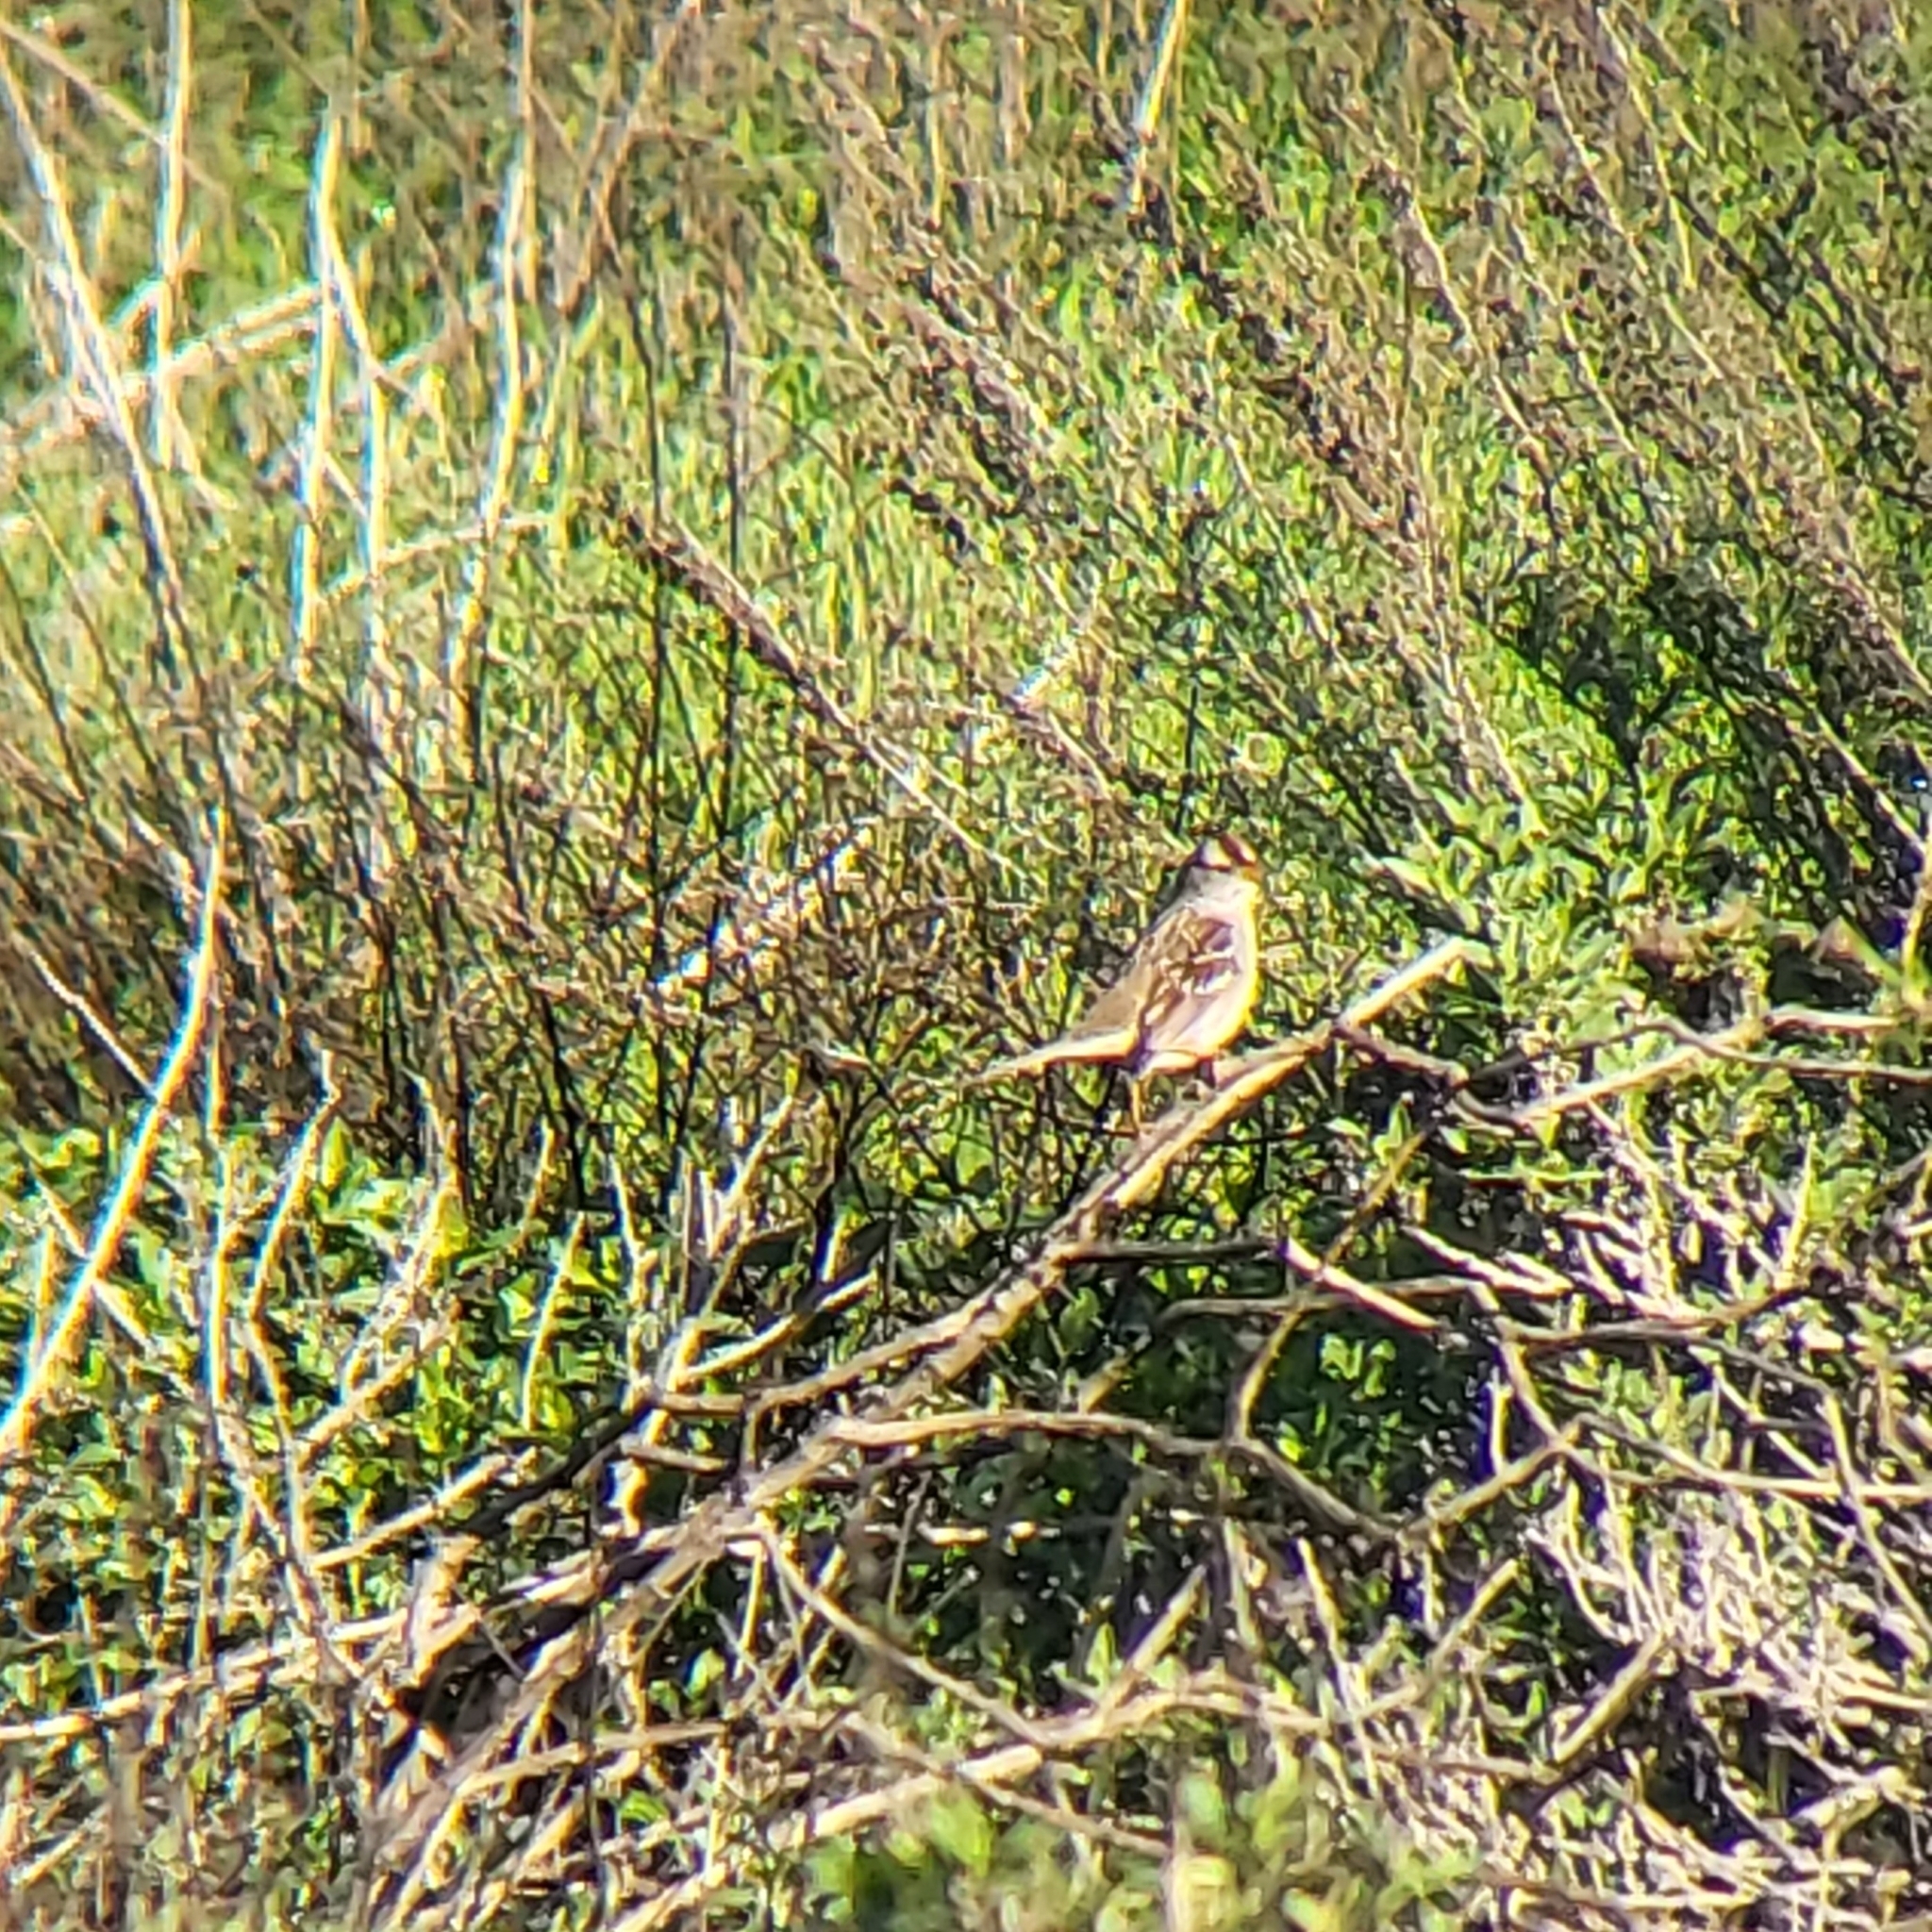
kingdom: Animalia
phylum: Chordata
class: Aves
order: Passeriformes
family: Passerellidae
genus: Zonotrichia
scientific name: Zonotrichia leucophrys
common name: White-crowned sparrow
